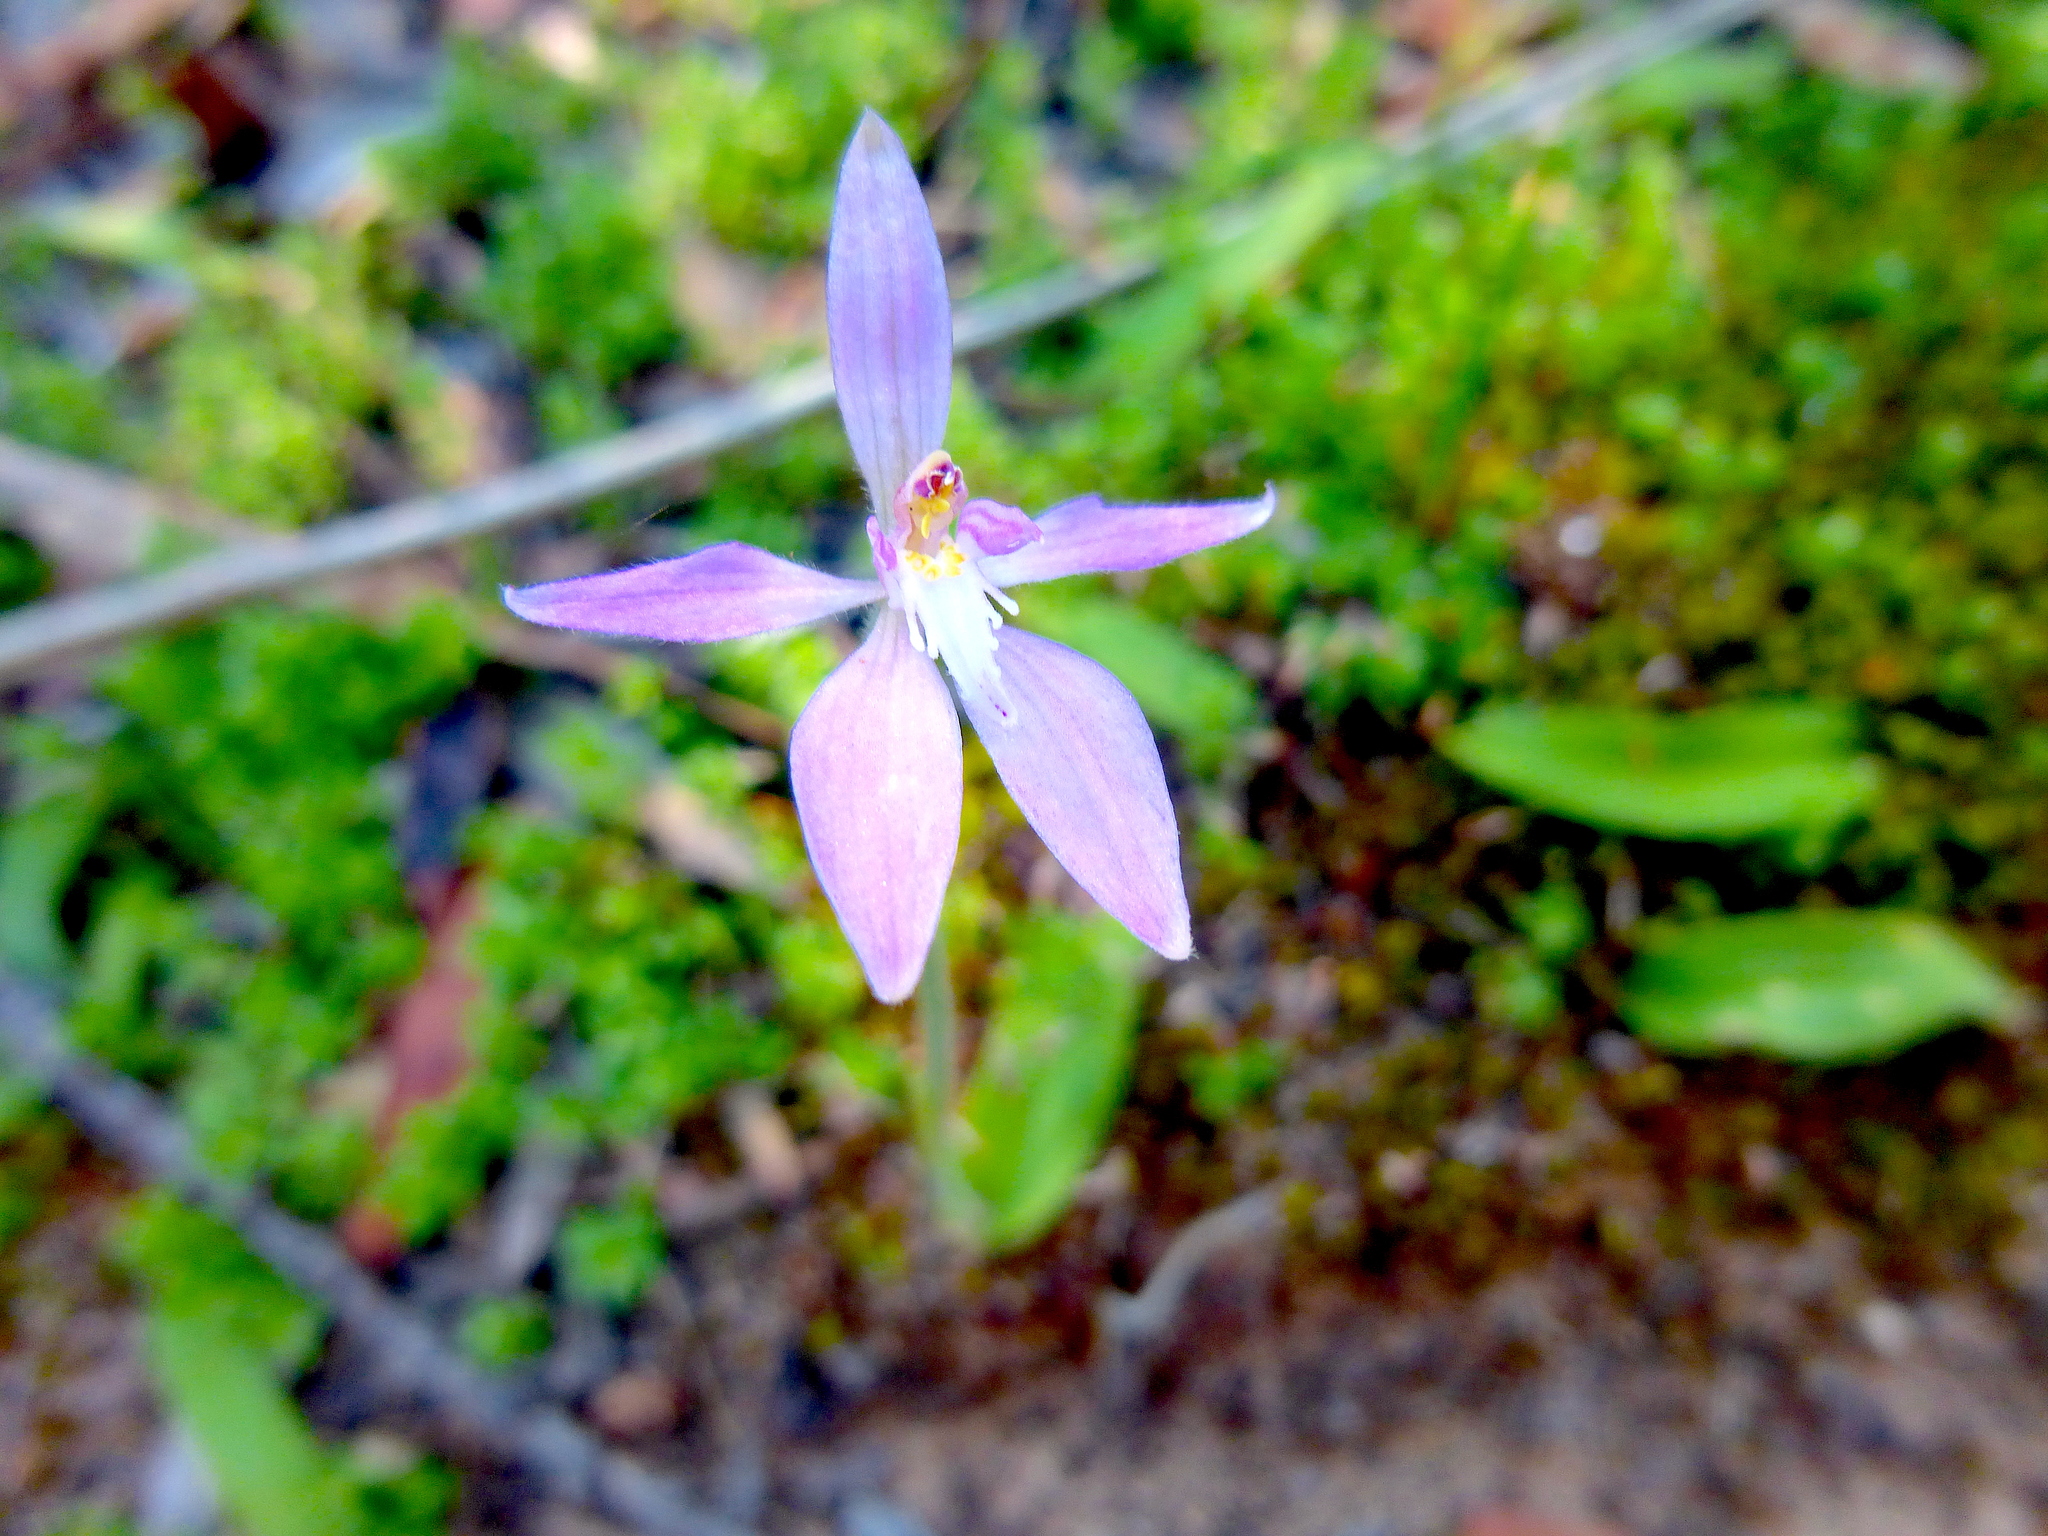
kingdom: Plantae
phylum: Tracheophyta
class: Liliopsida
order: Asparagales
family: Orchidaceae
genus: Caladenia
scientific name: Caladenia latifolia
